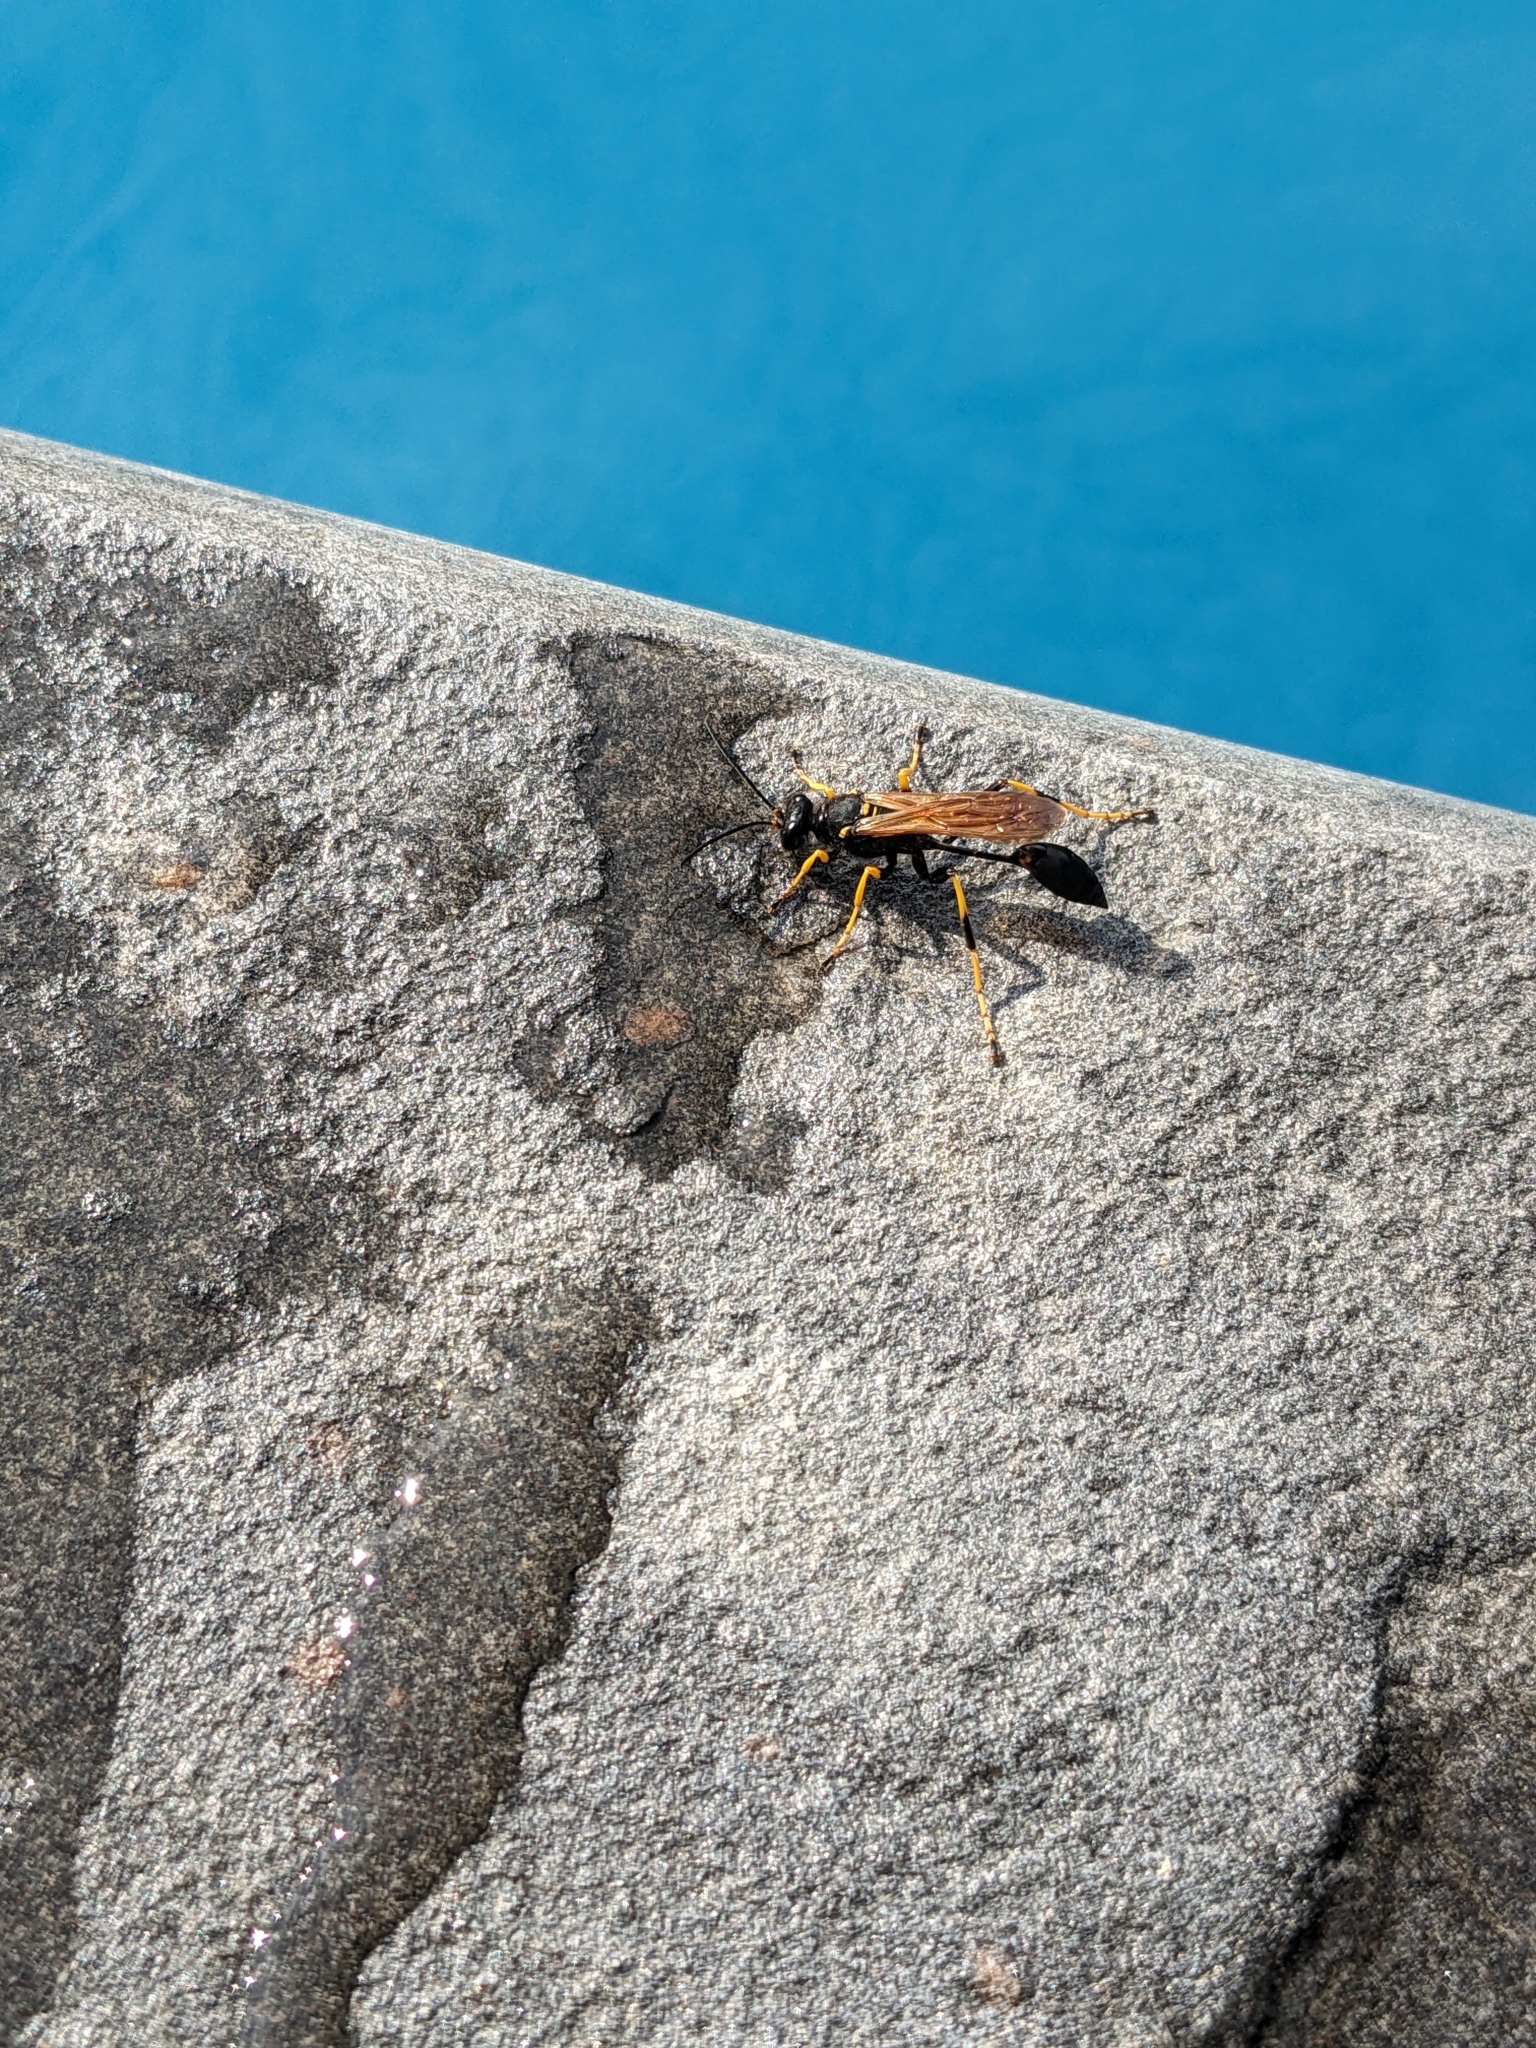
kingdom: Animalia
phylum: Arthropoda
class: Insecta
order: Hymenoptera
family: Sphecidae
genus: Sceliphron
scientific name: Sceliphron caementarium
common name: Mud dauber
